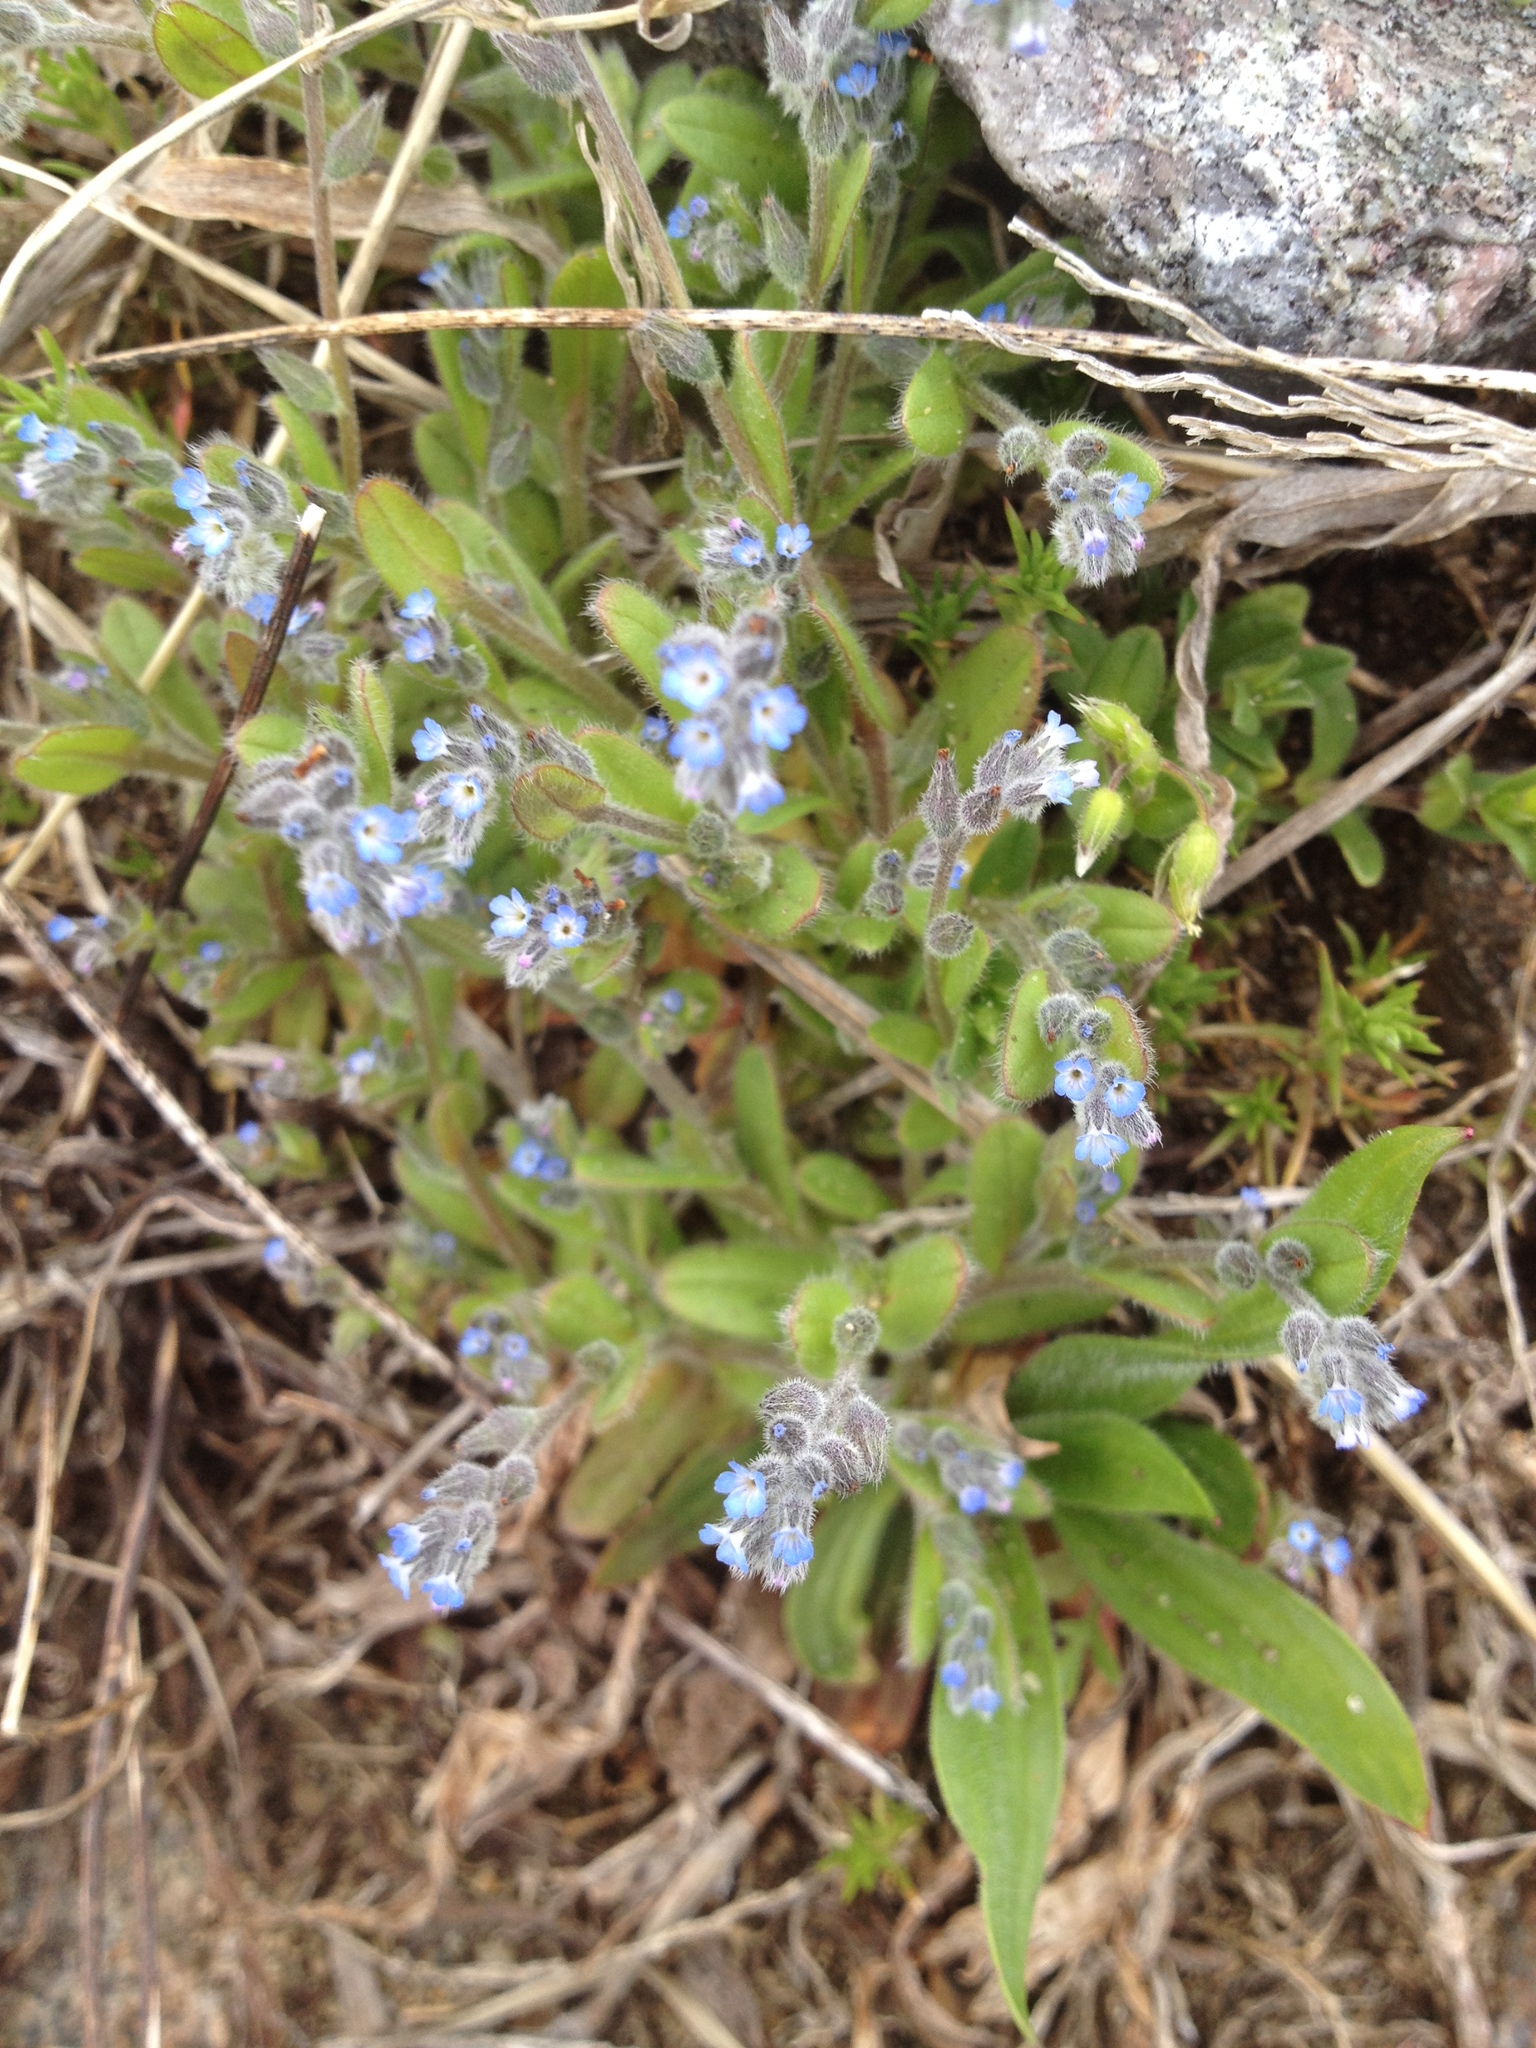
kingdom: Plantae
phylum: Tracheophyta
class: Magnoliopsida
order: Boraginales
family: Boraginaceae
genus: Myosotis
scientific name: Myosotis stricta
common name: Strict forget-me-not
